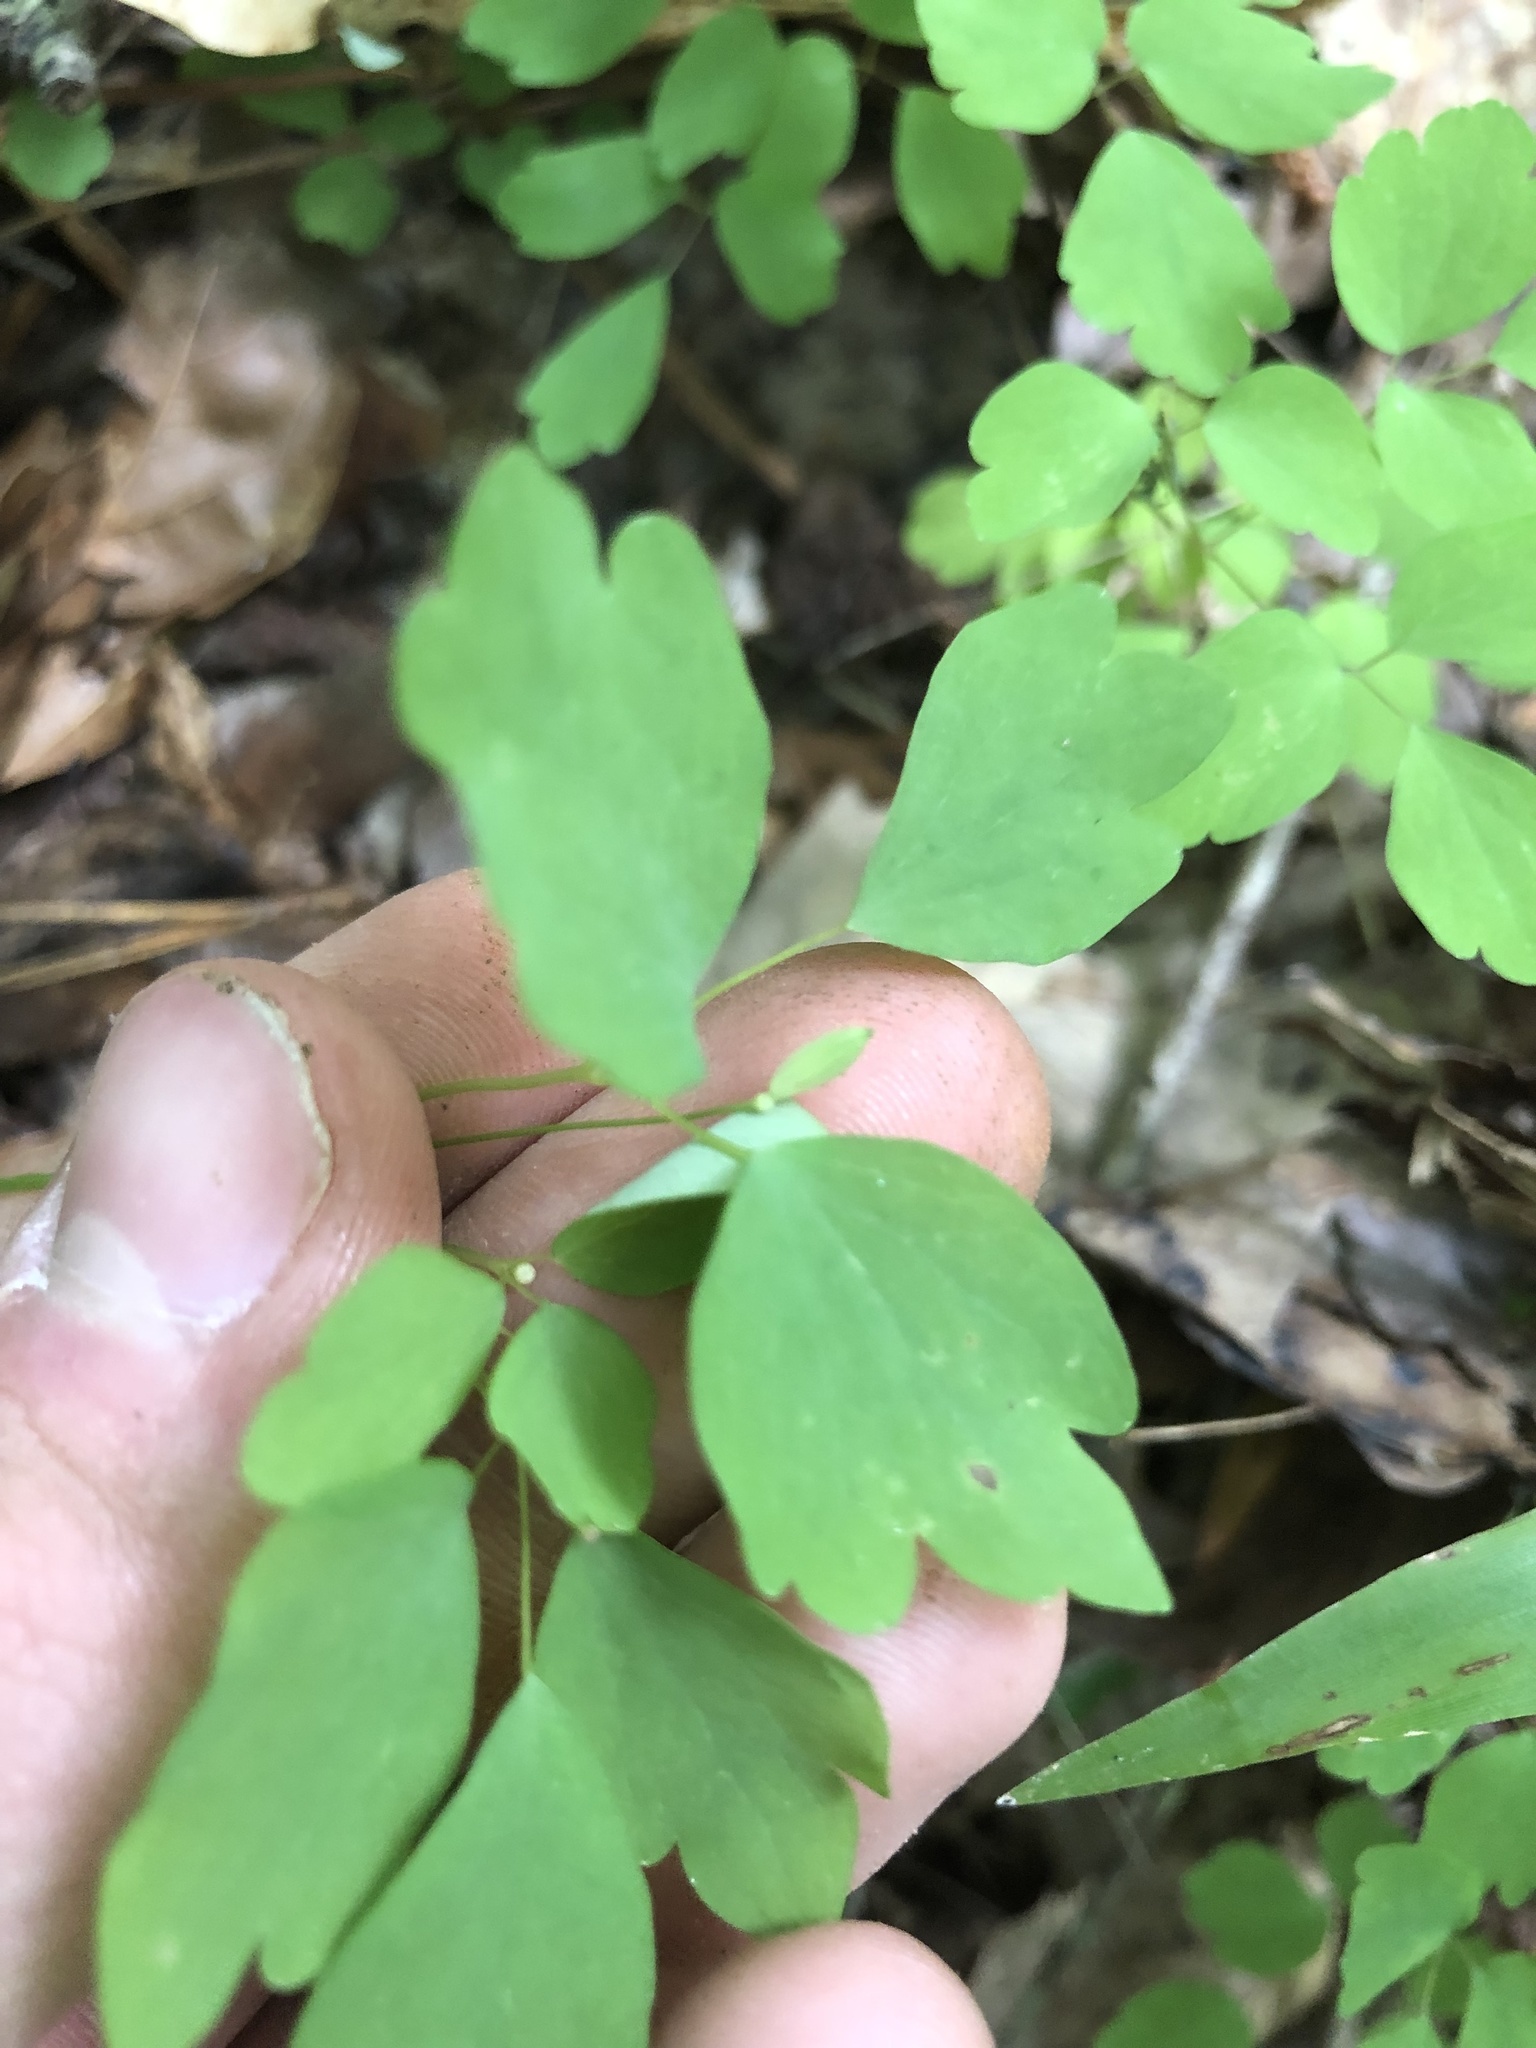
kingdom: Plantae
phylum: Tracheophyta
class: Magnoliopsida
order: Ranunculales
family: Ranunculaceae
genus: Thalictrum
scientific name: Thalictrum thalictroides
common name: Rue-anemone
